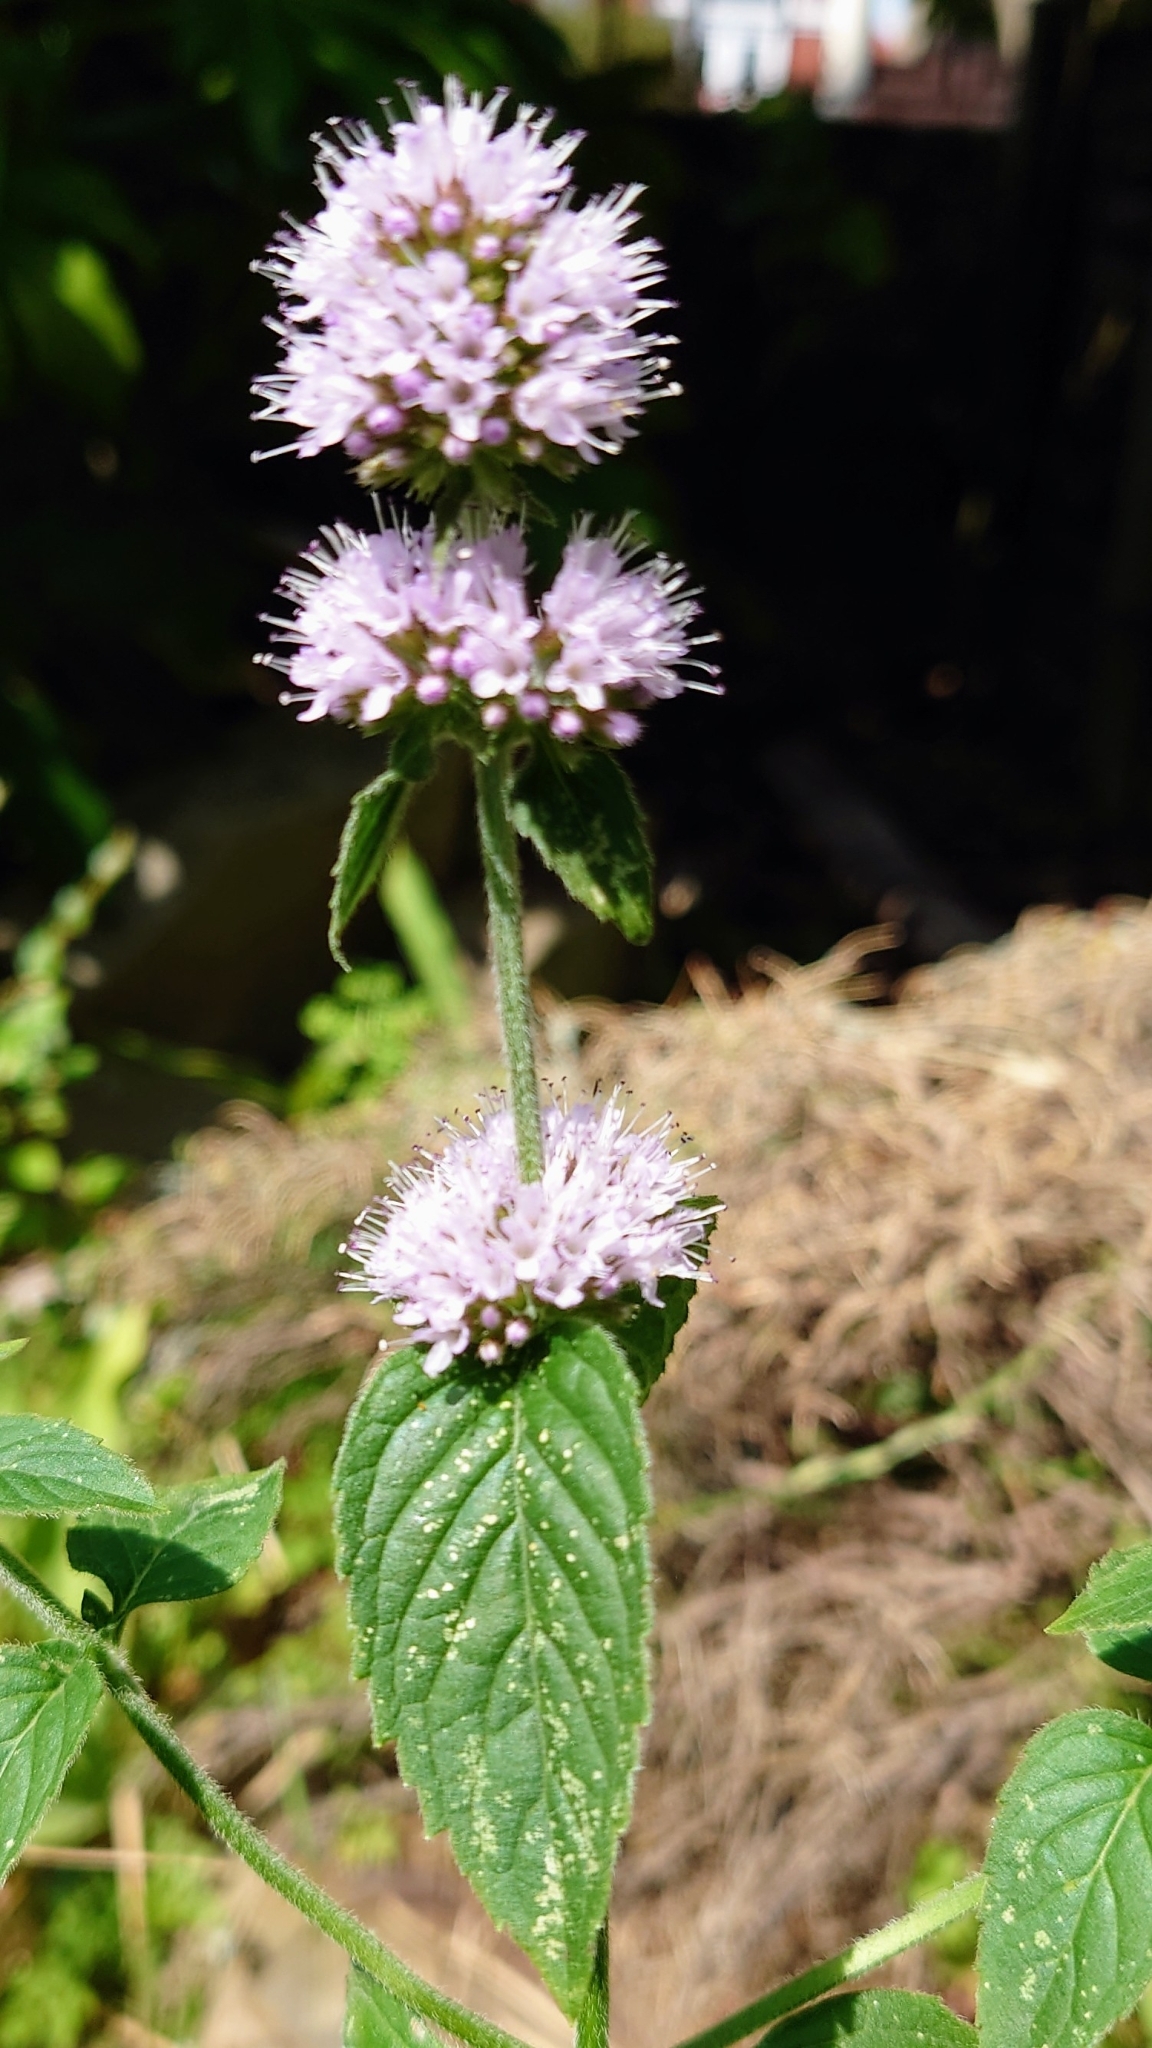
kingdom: Plantae
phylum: Tracheophyta
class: Magnoliopsida
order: Lamiales
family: Lamiaceae
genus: Mentha
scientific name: Mentha aquatica
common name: Water mint
